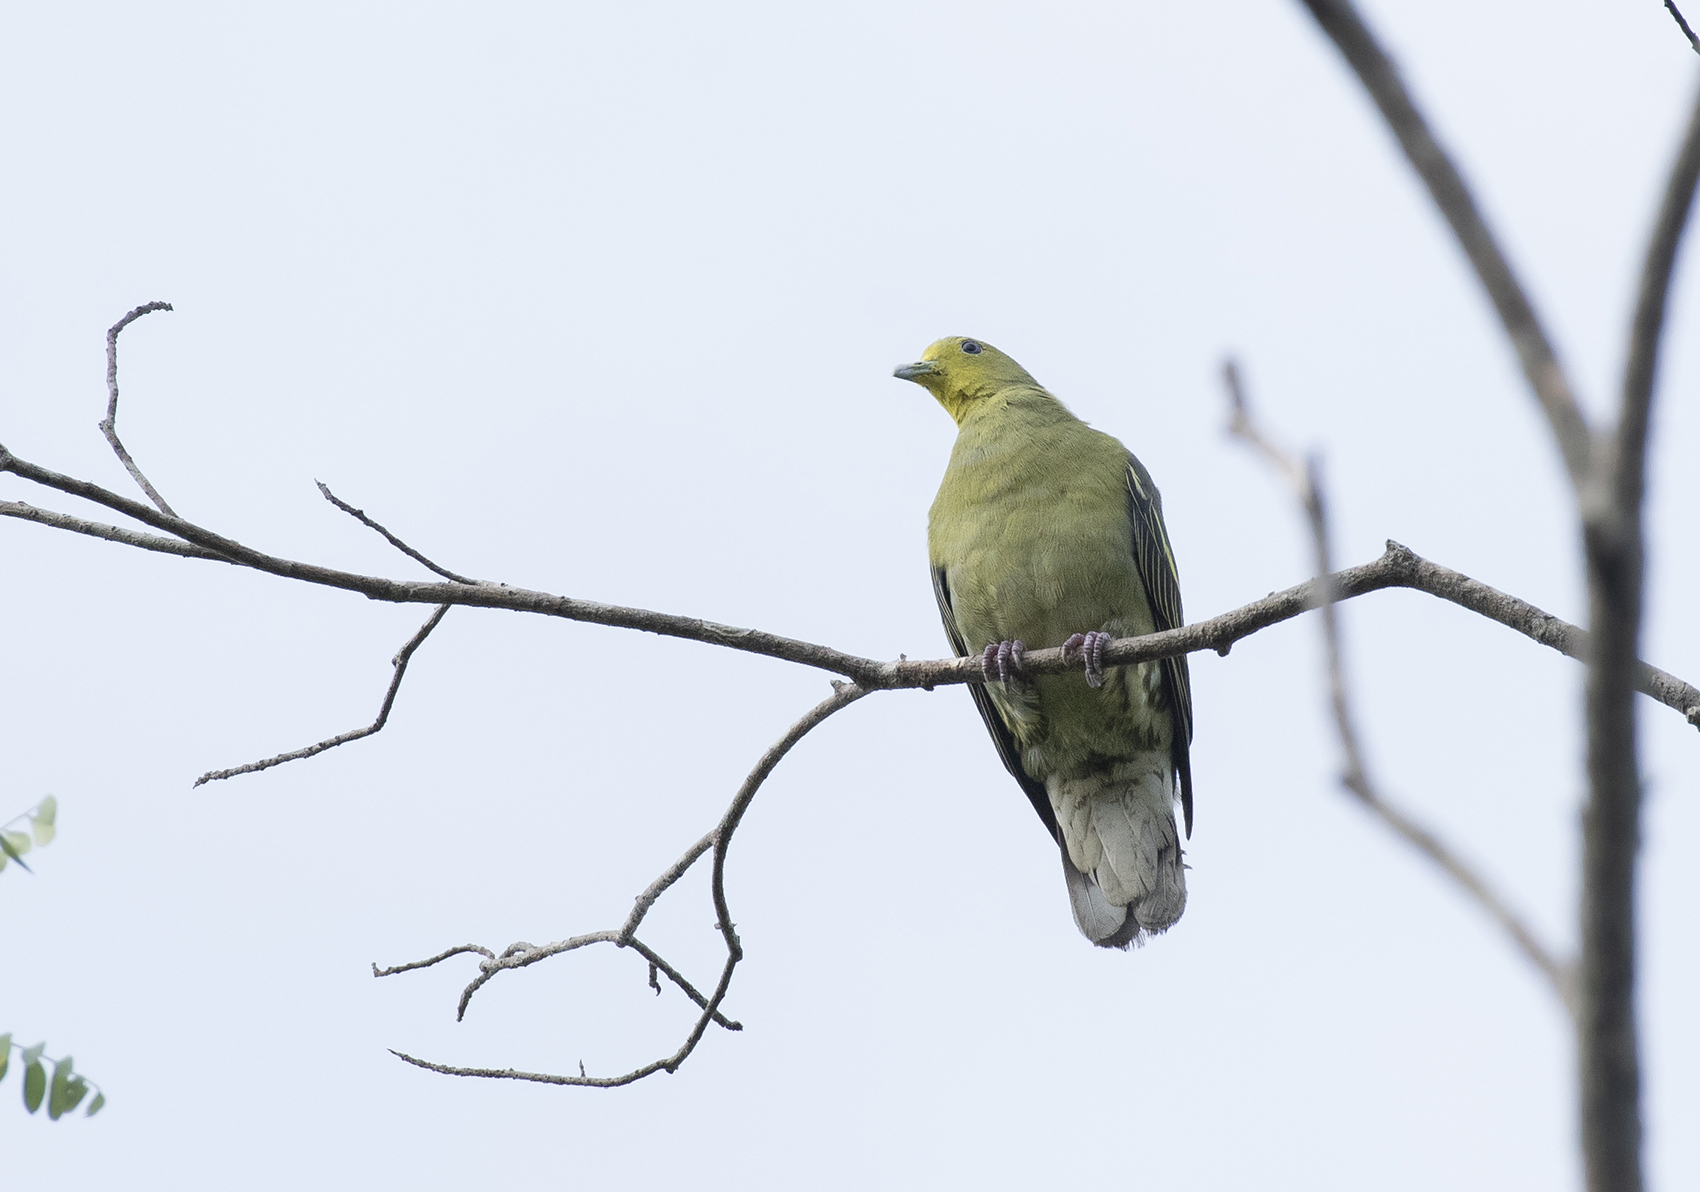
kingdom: Animalia
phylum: Chordata
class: Aves
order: Columbiformes
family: Columbidae
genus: Treron
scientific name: Treron pompadora
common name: Pompadour green pigeon
